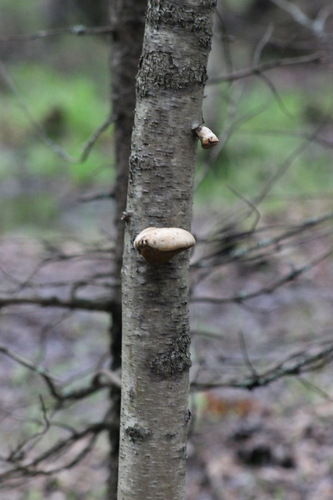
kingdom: Fungi
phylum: Basidiomycota
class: Agaricomycetes
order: Polyporales
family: Fomitopsidaceae
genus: Fomitopsis
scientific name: Fomitopsis betulina
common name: Birch polypore
